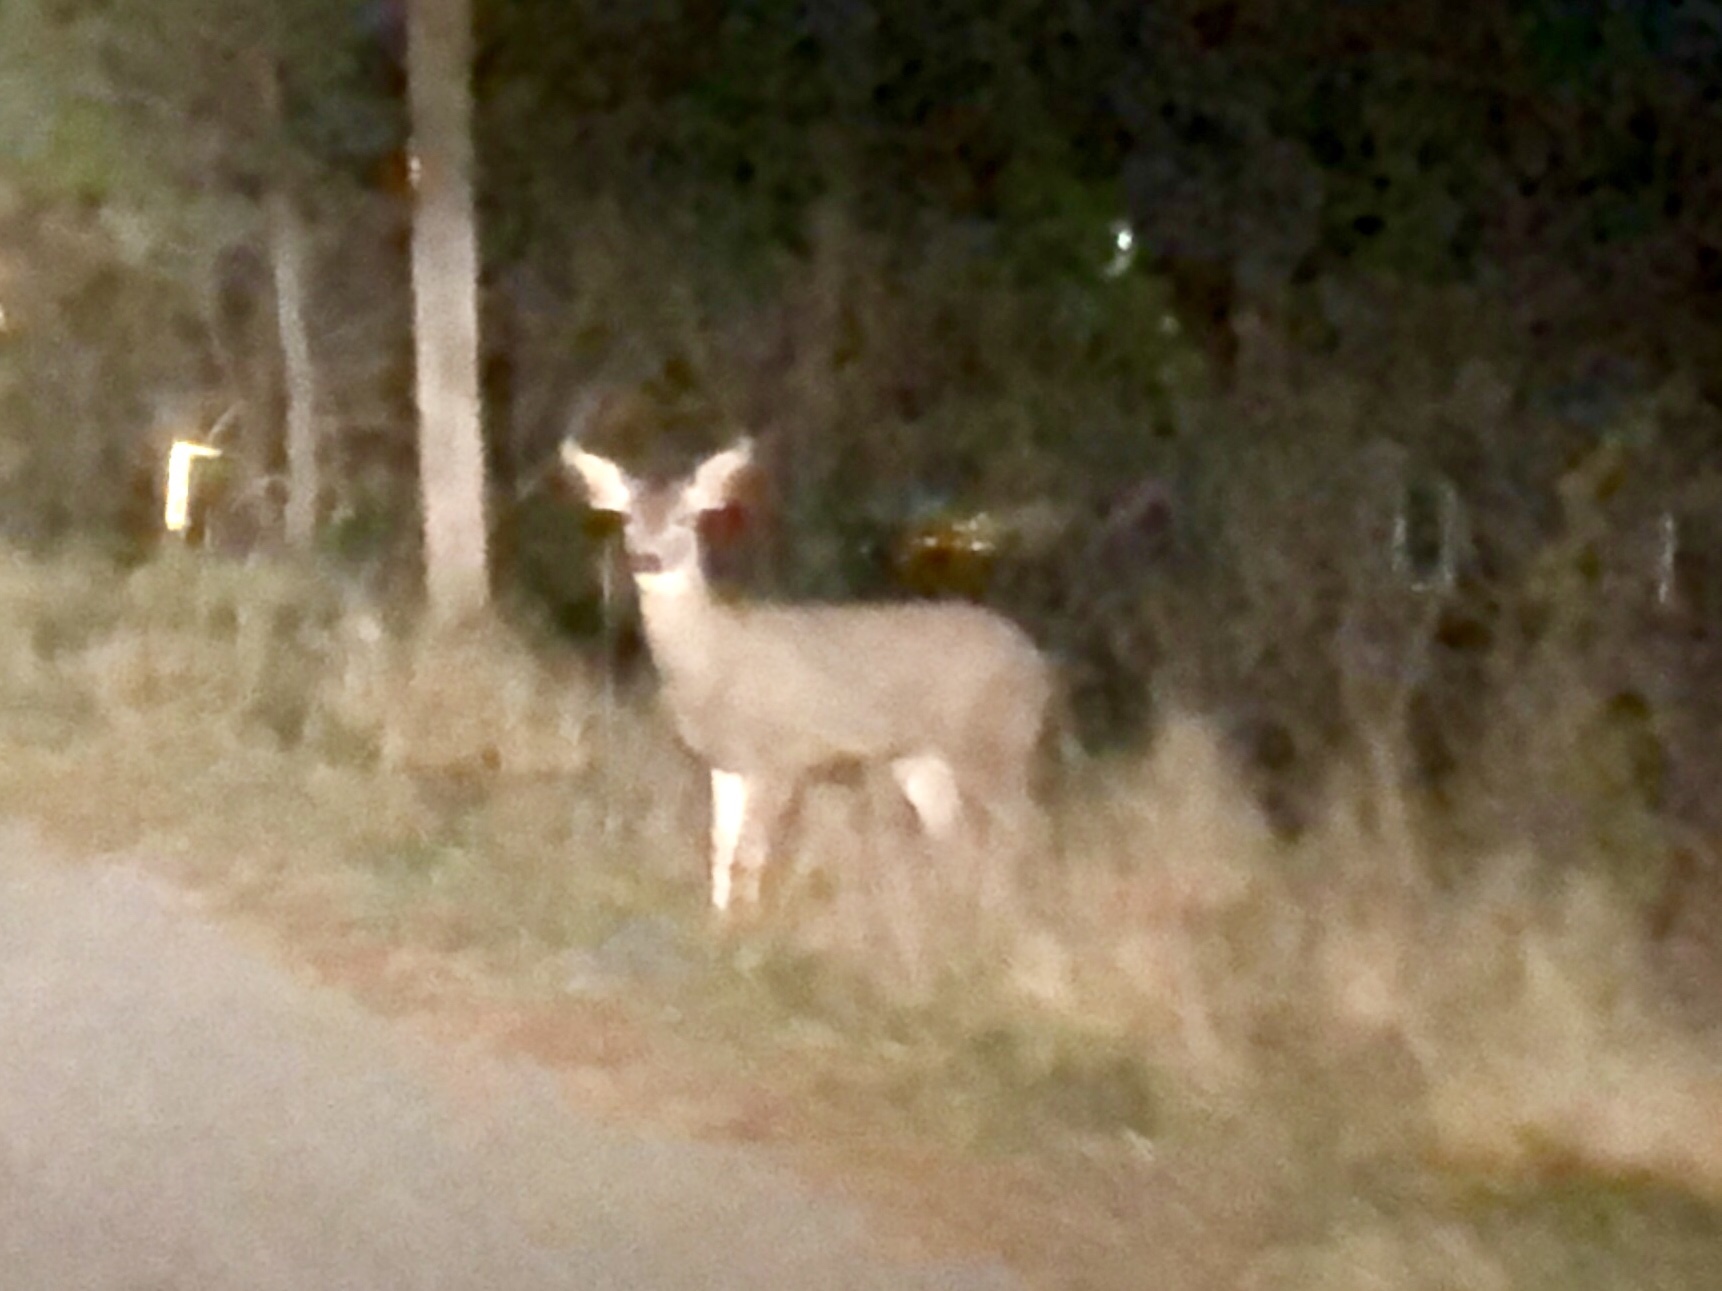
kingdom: Animalia
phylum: Chordata
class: Mammalia
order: Artiodactyla
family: Cervidae
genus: Odocoileus
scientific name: Odocoileus hemionus
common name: Mule deer
